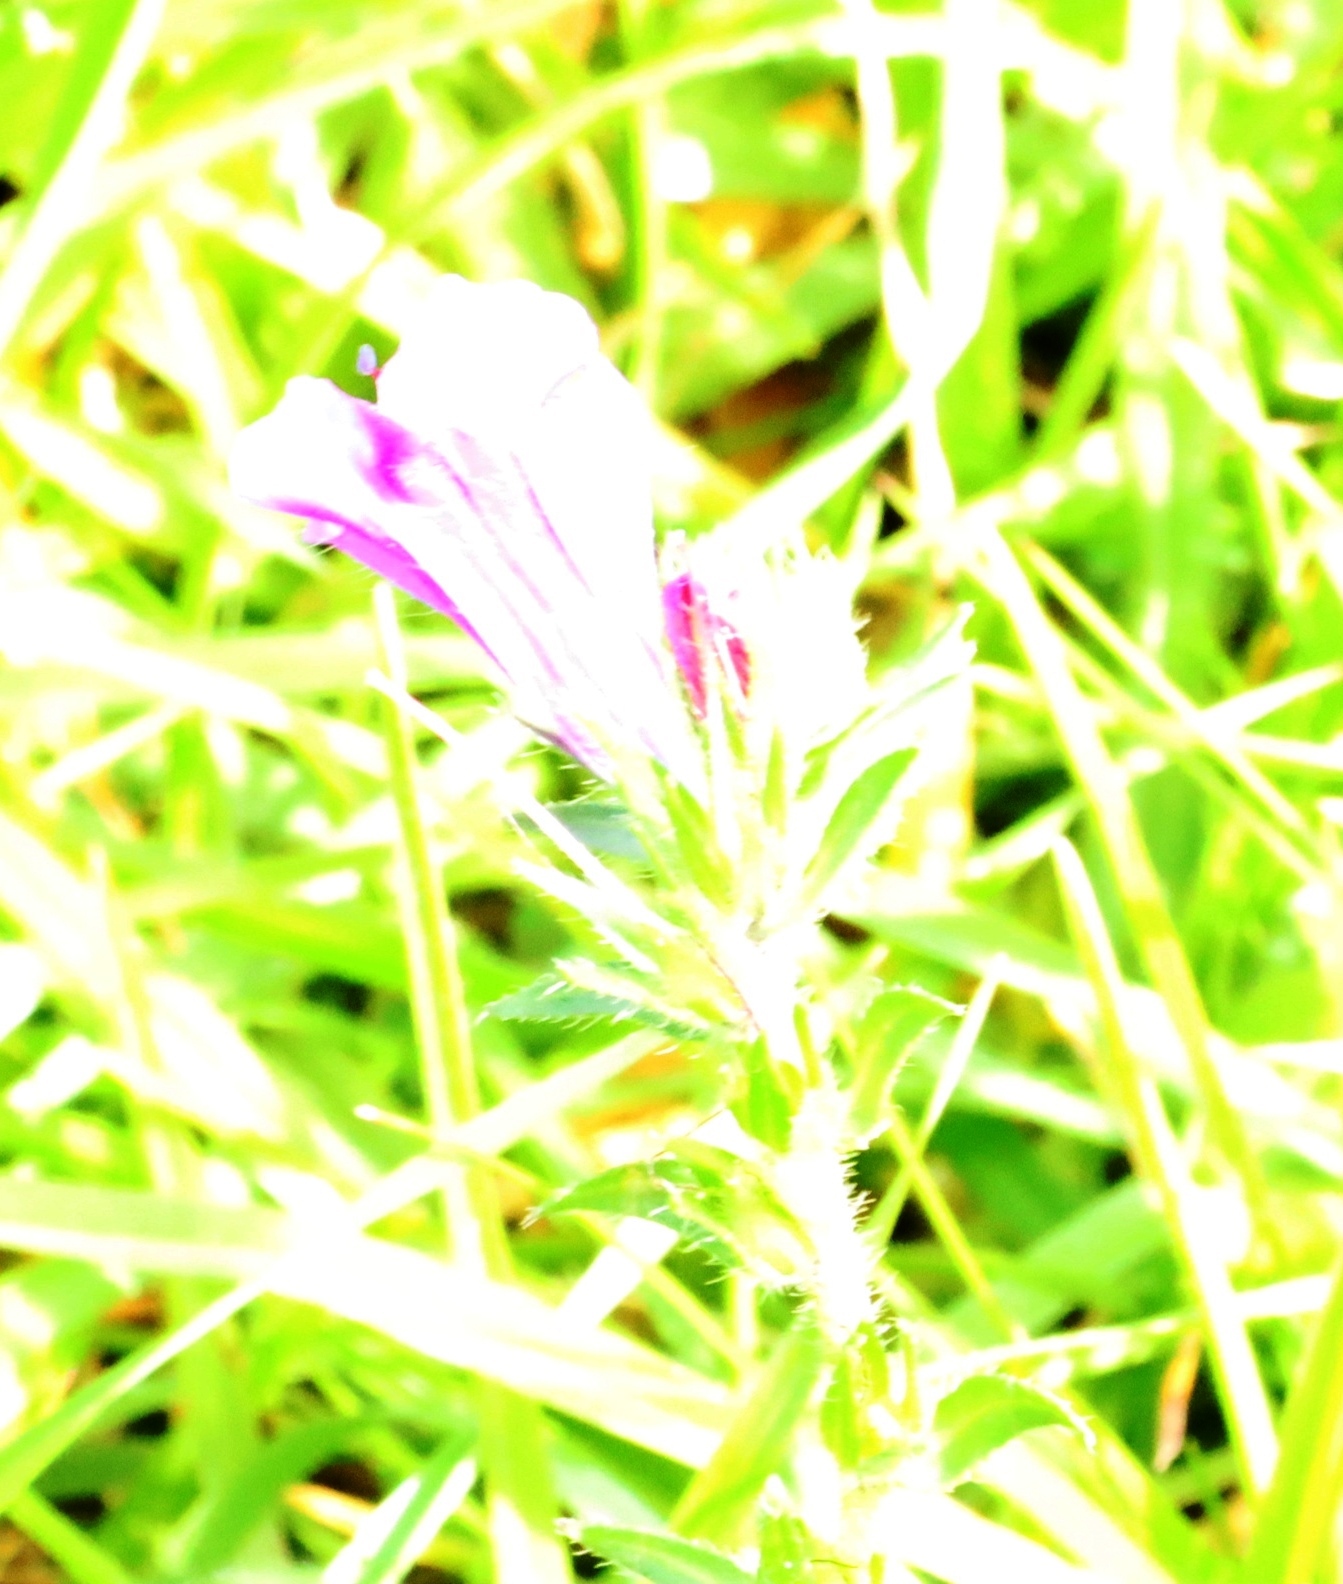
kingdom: Plantae
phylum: Tracheophyta
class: Magnoliopsida
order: Boraginales
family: Boraginaceae
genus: Echium
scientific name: Echium plantagineum
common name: Purple viper's-bugloss
